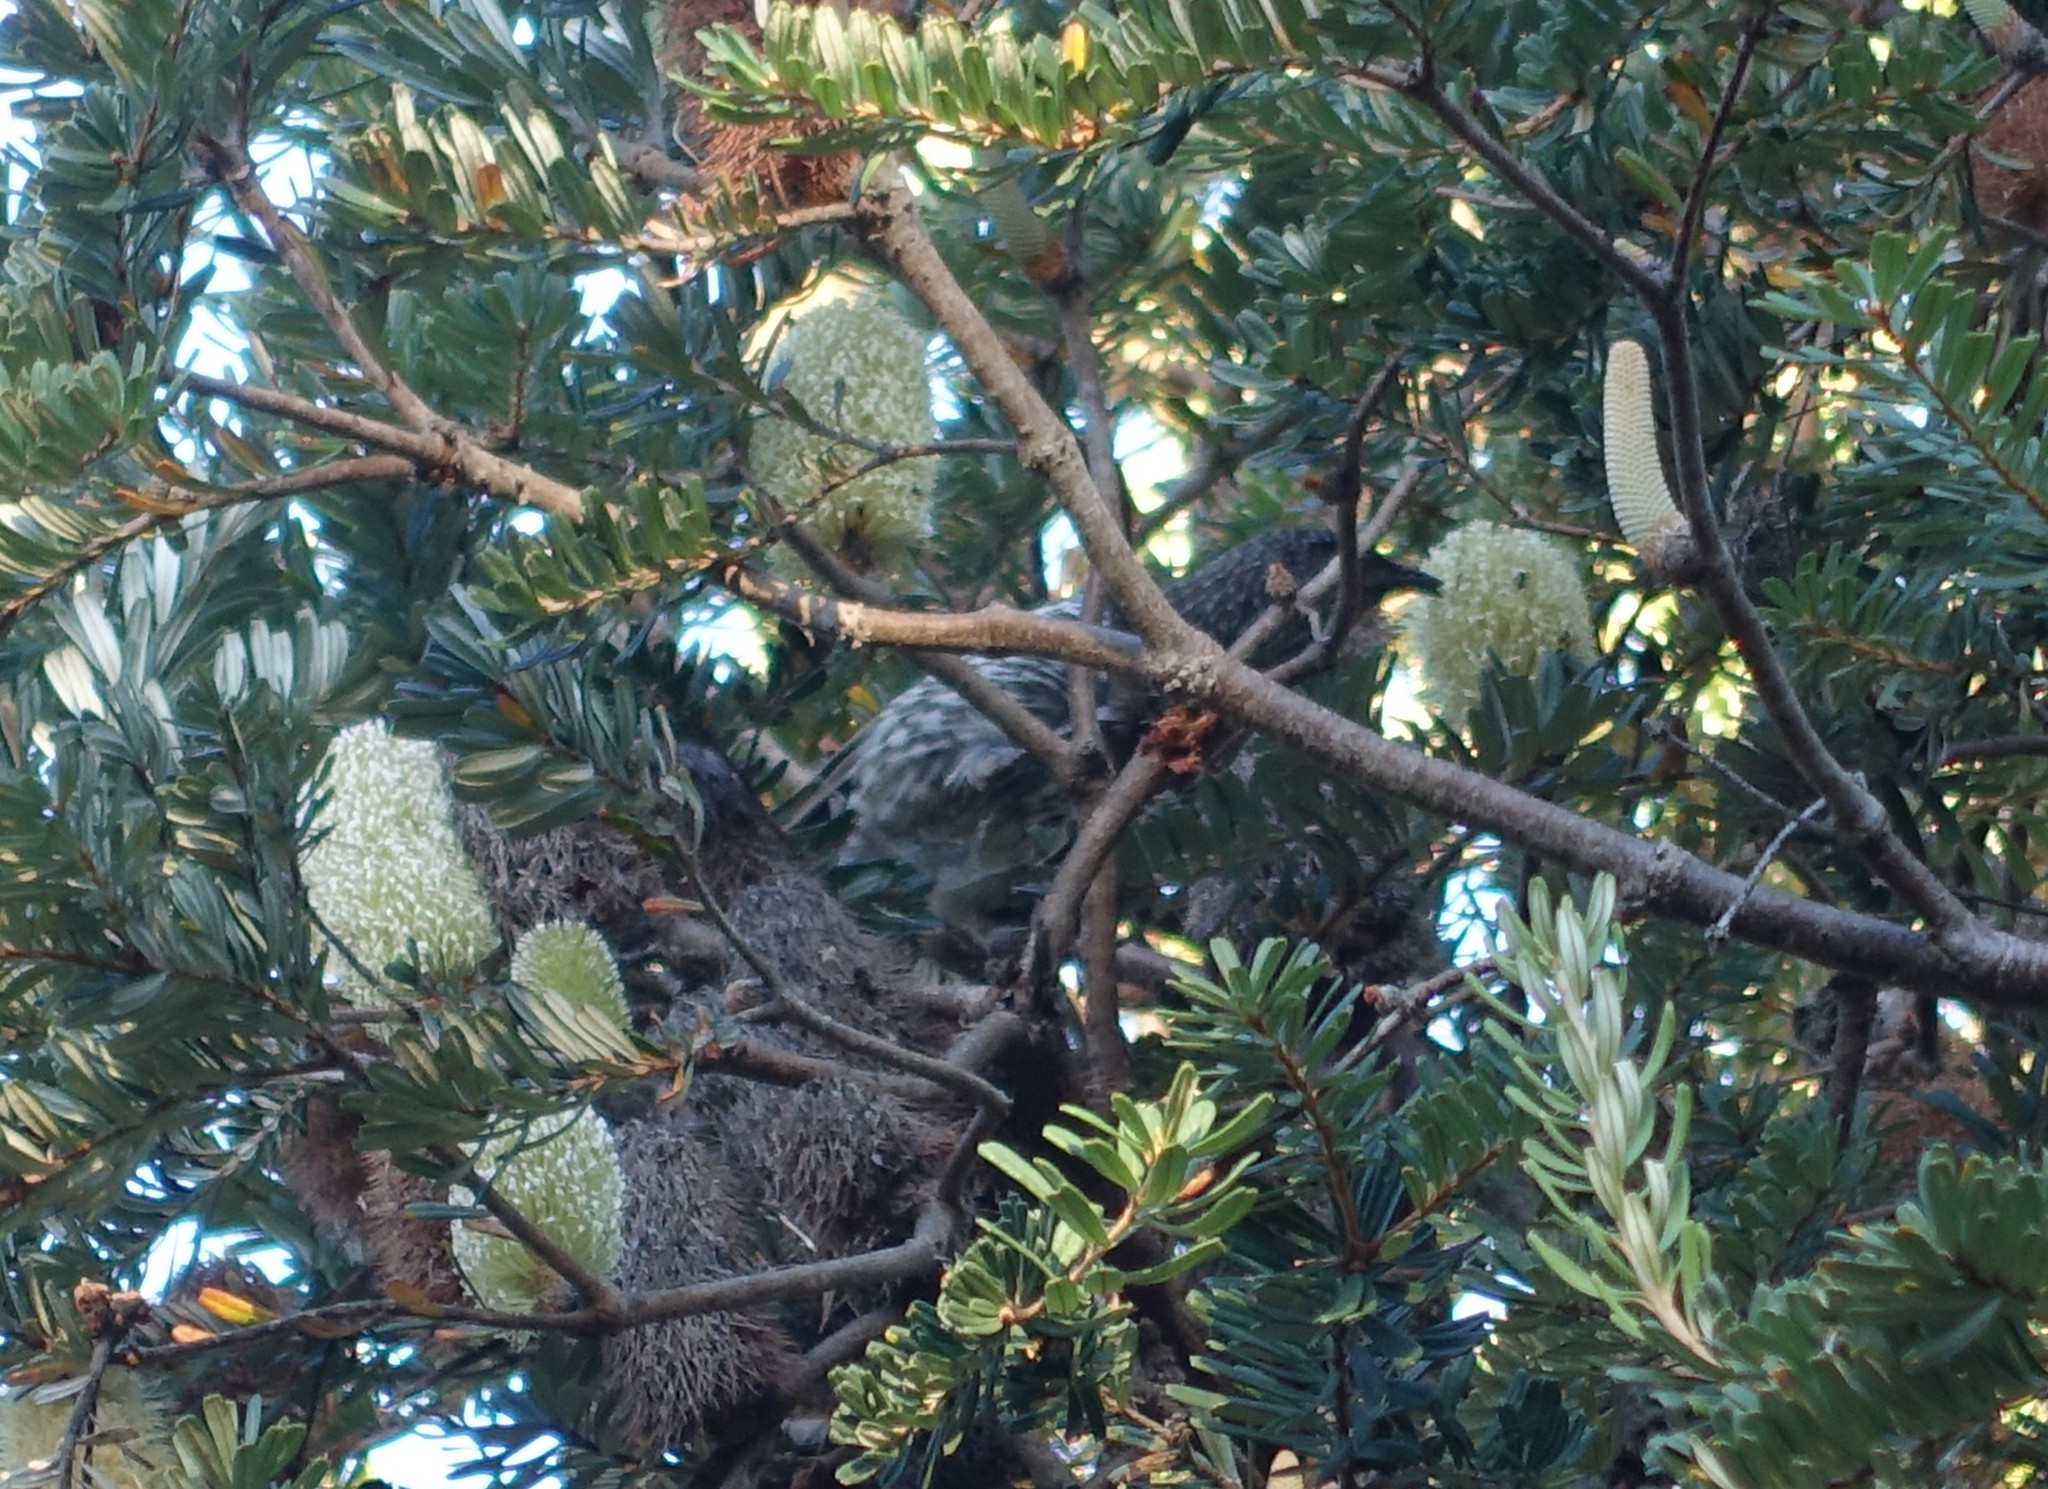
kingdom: Animalia
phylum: Chordata
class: Aves
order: Passeriformes
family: Meliphagidae
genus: Anthochaera
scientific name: Anthochaera chrysoptera
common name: Little wattlebird
